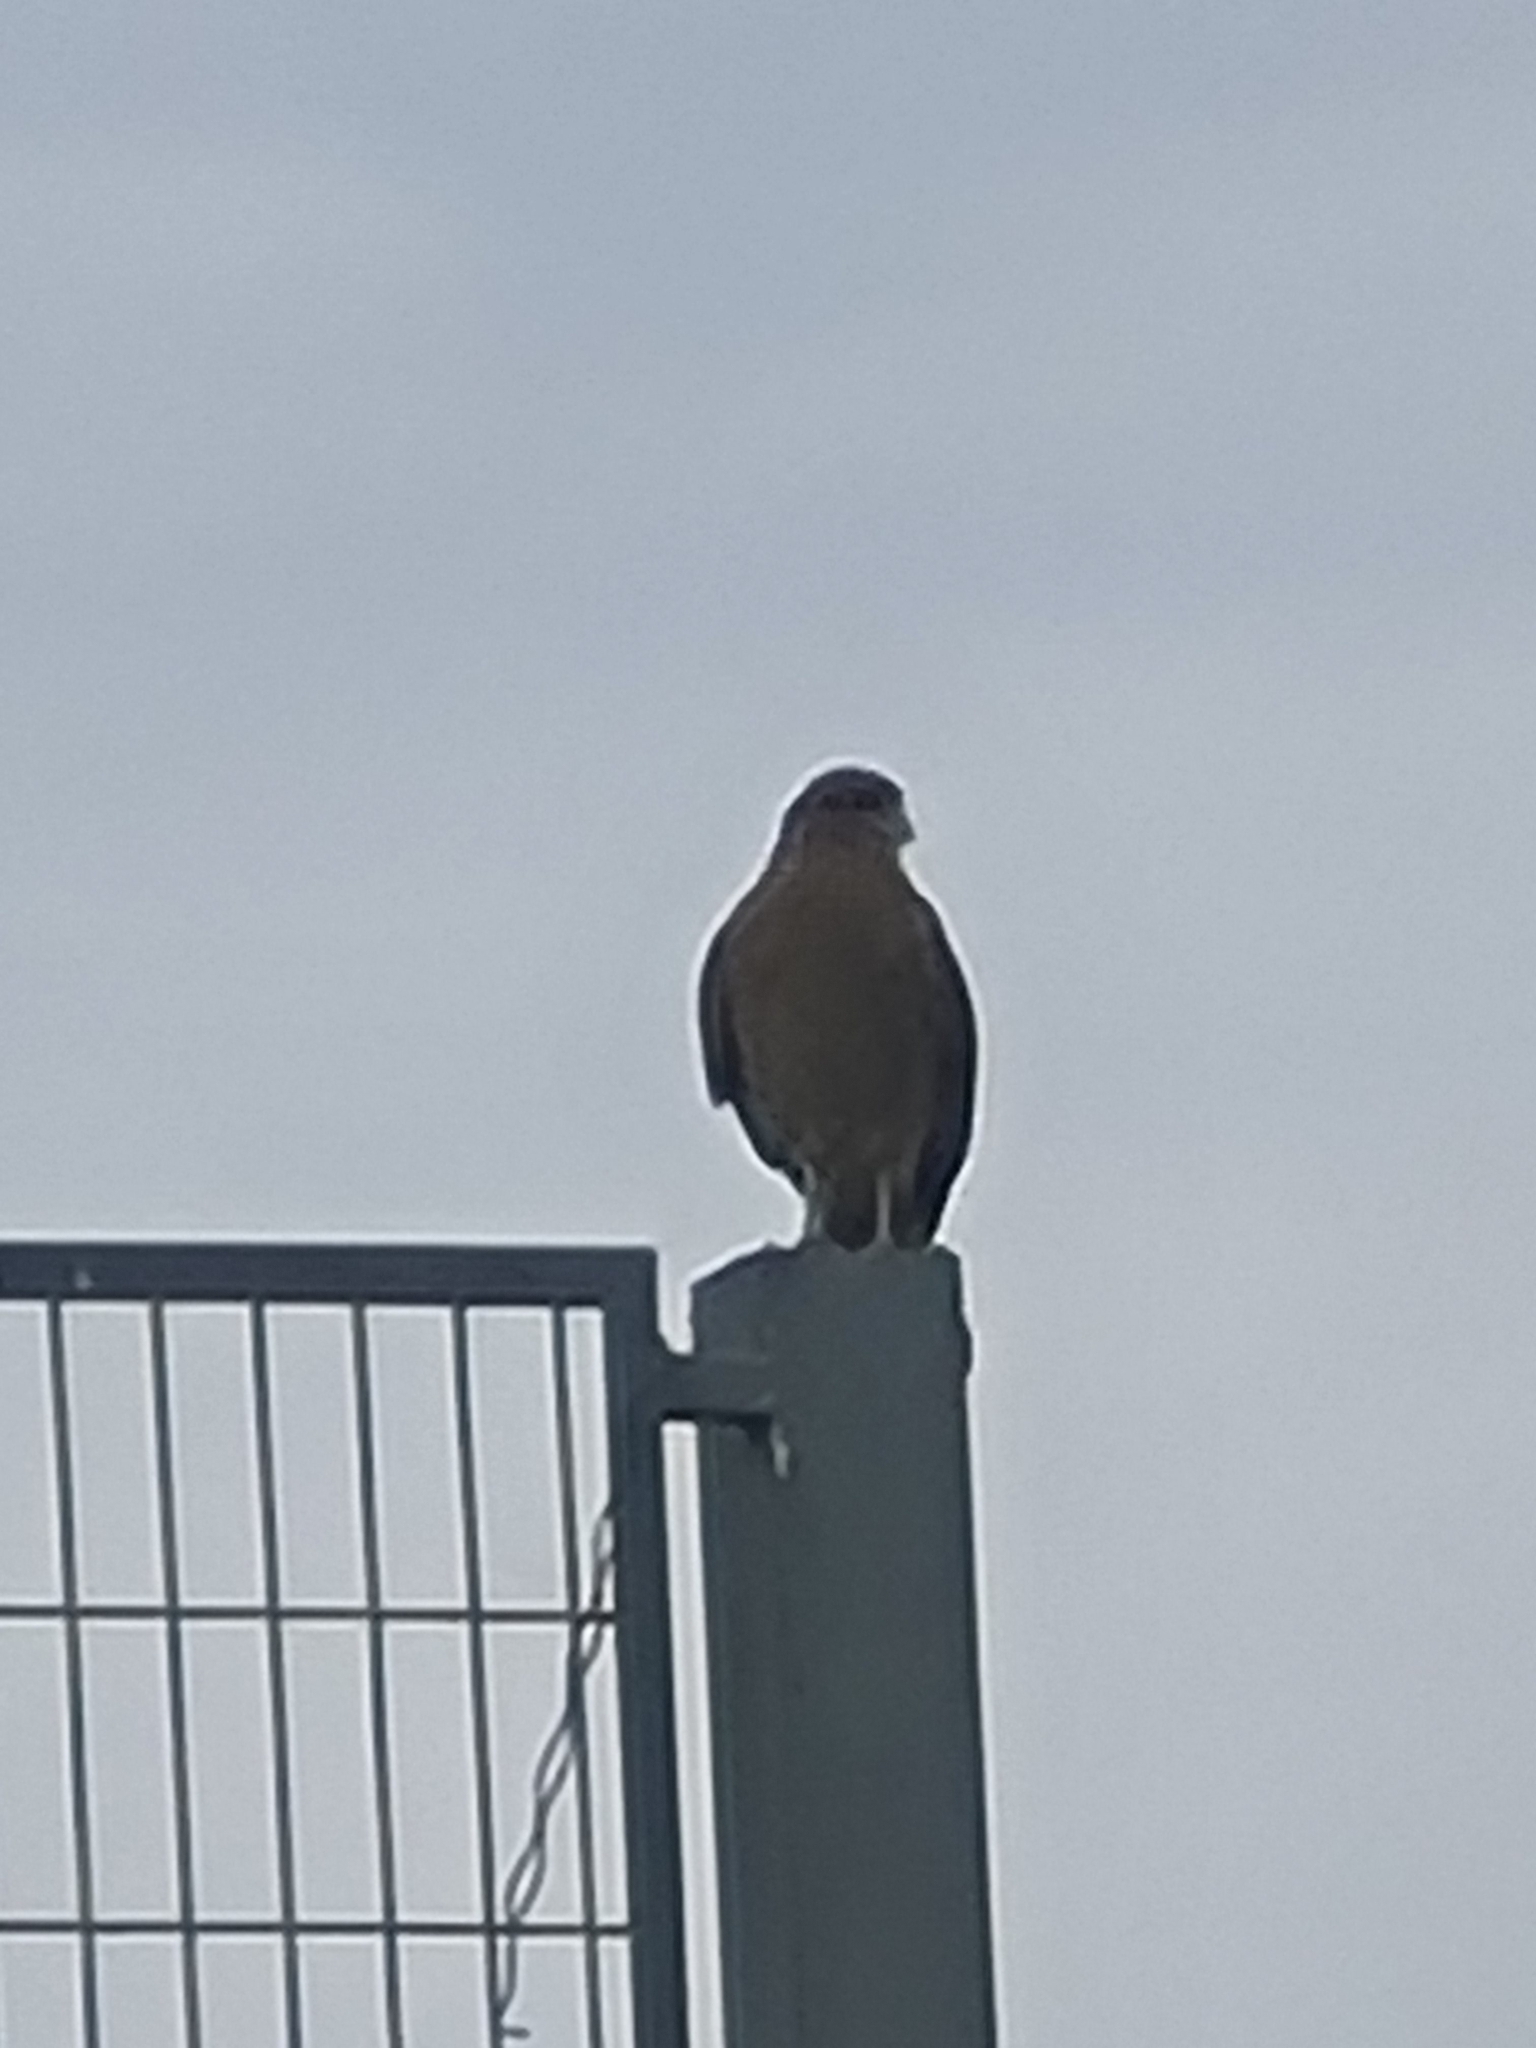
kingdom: Animalia
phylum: Chordata
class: Aves
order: Falconiformes
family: Falconidae
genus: Daptrius
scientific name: Daptrius
